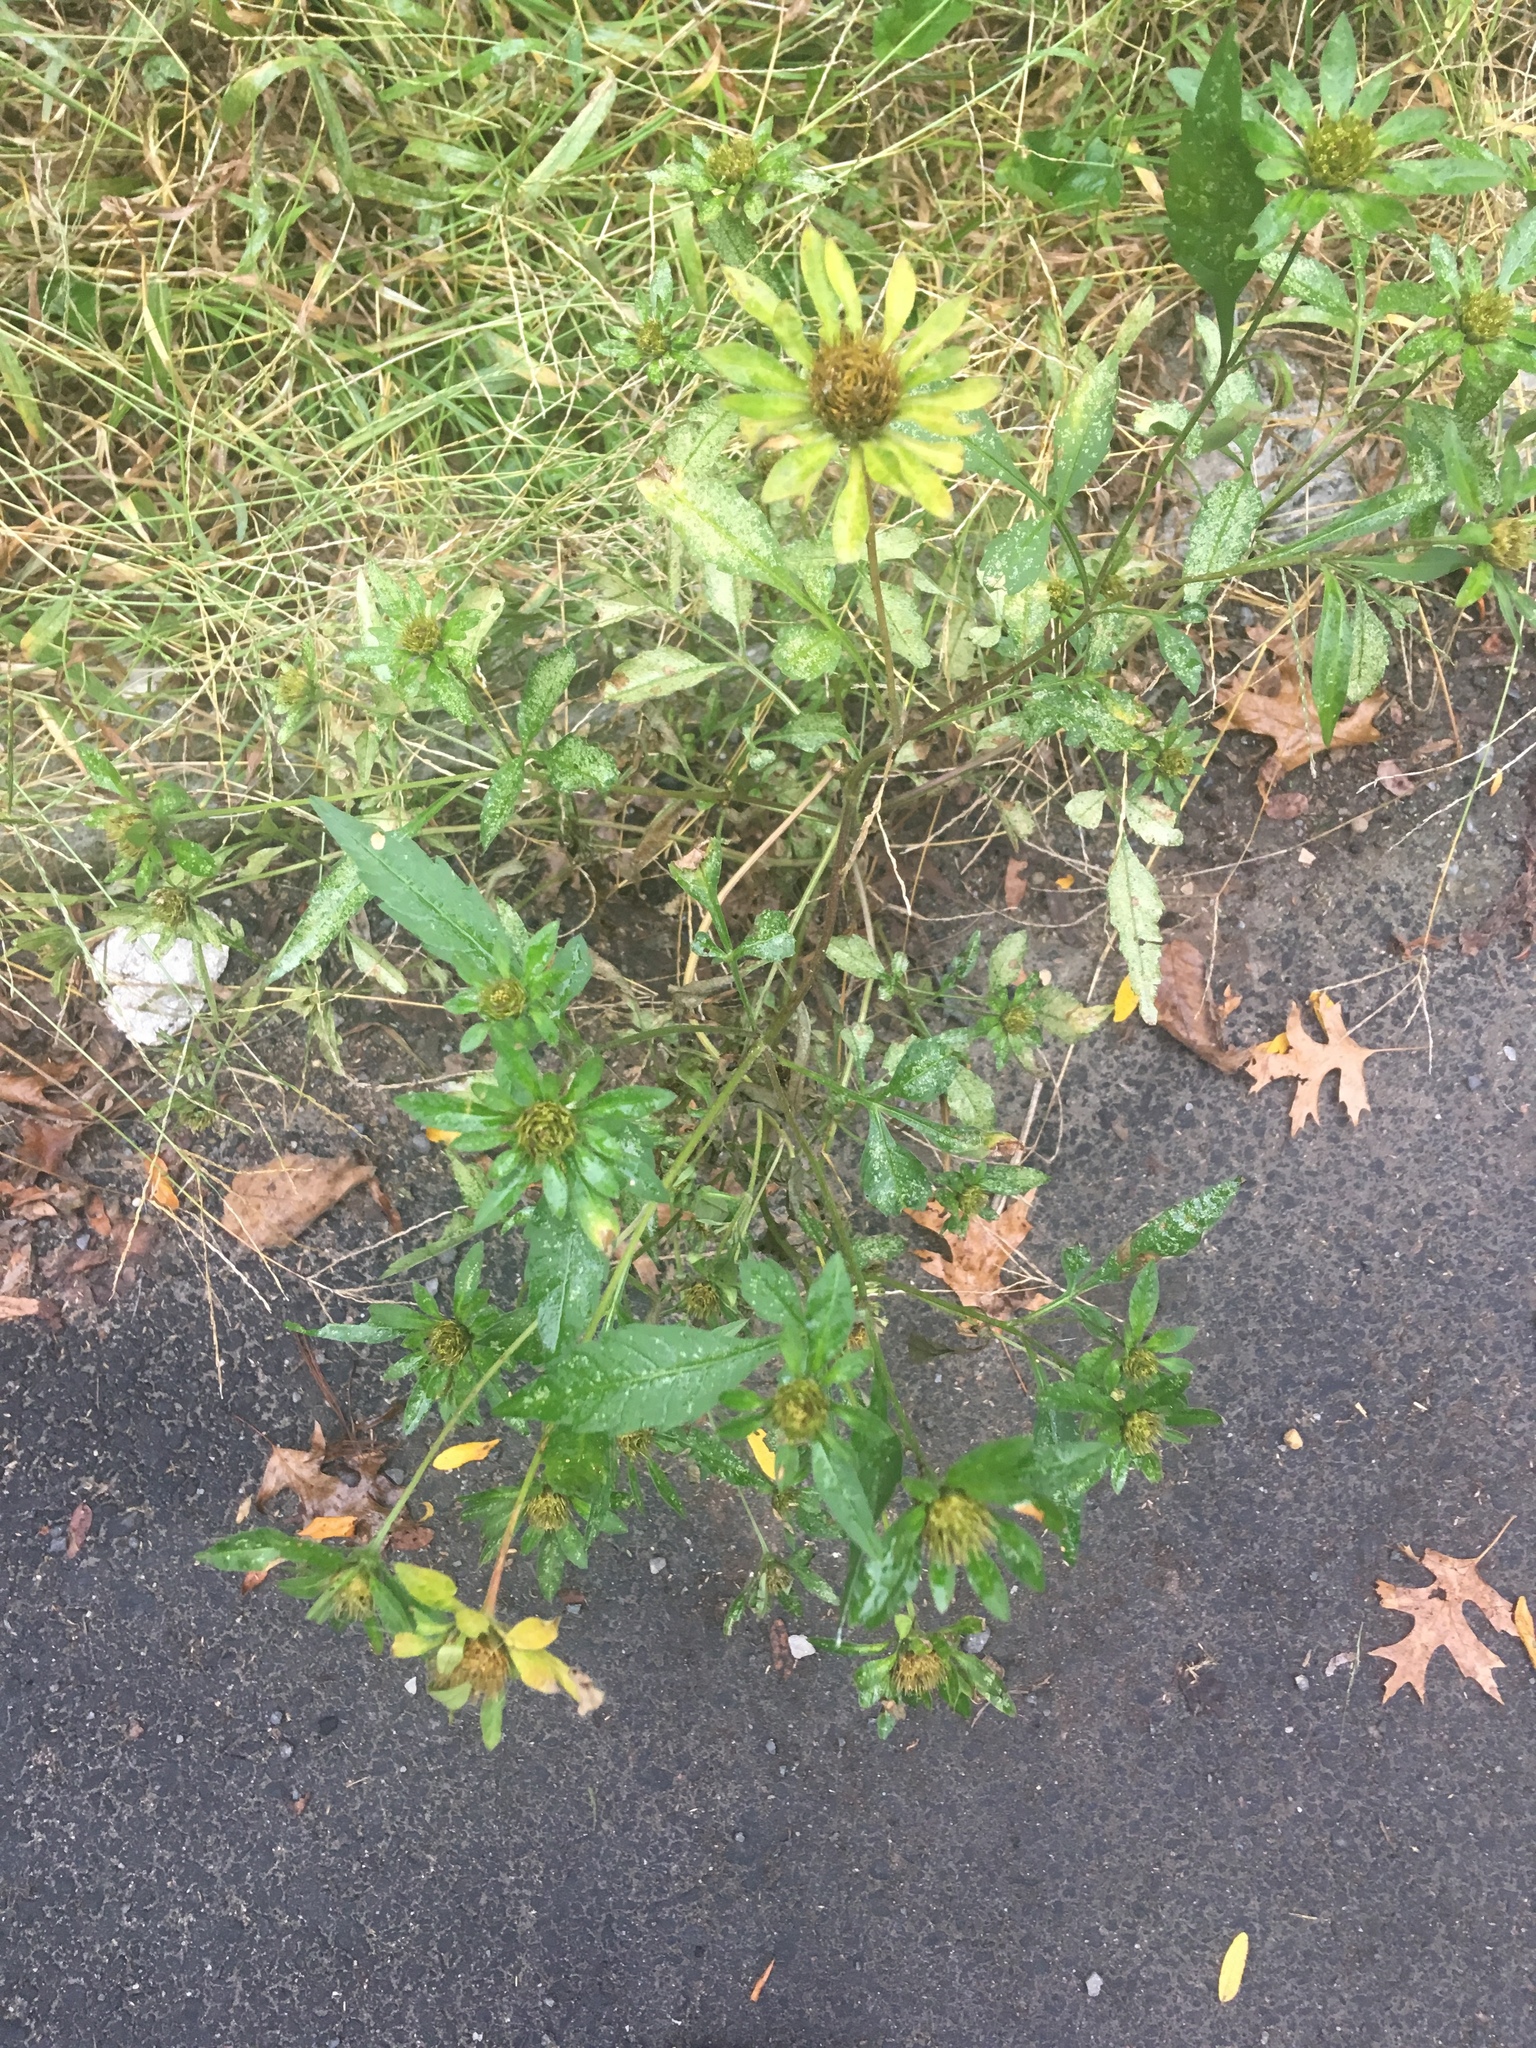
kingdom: Plantae
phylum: Tracheophyta
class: Magnoliopsida
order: Asterales
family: Asteraceae
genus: Bidens
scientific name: Bidens vulgata
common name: Tall beggarticks
